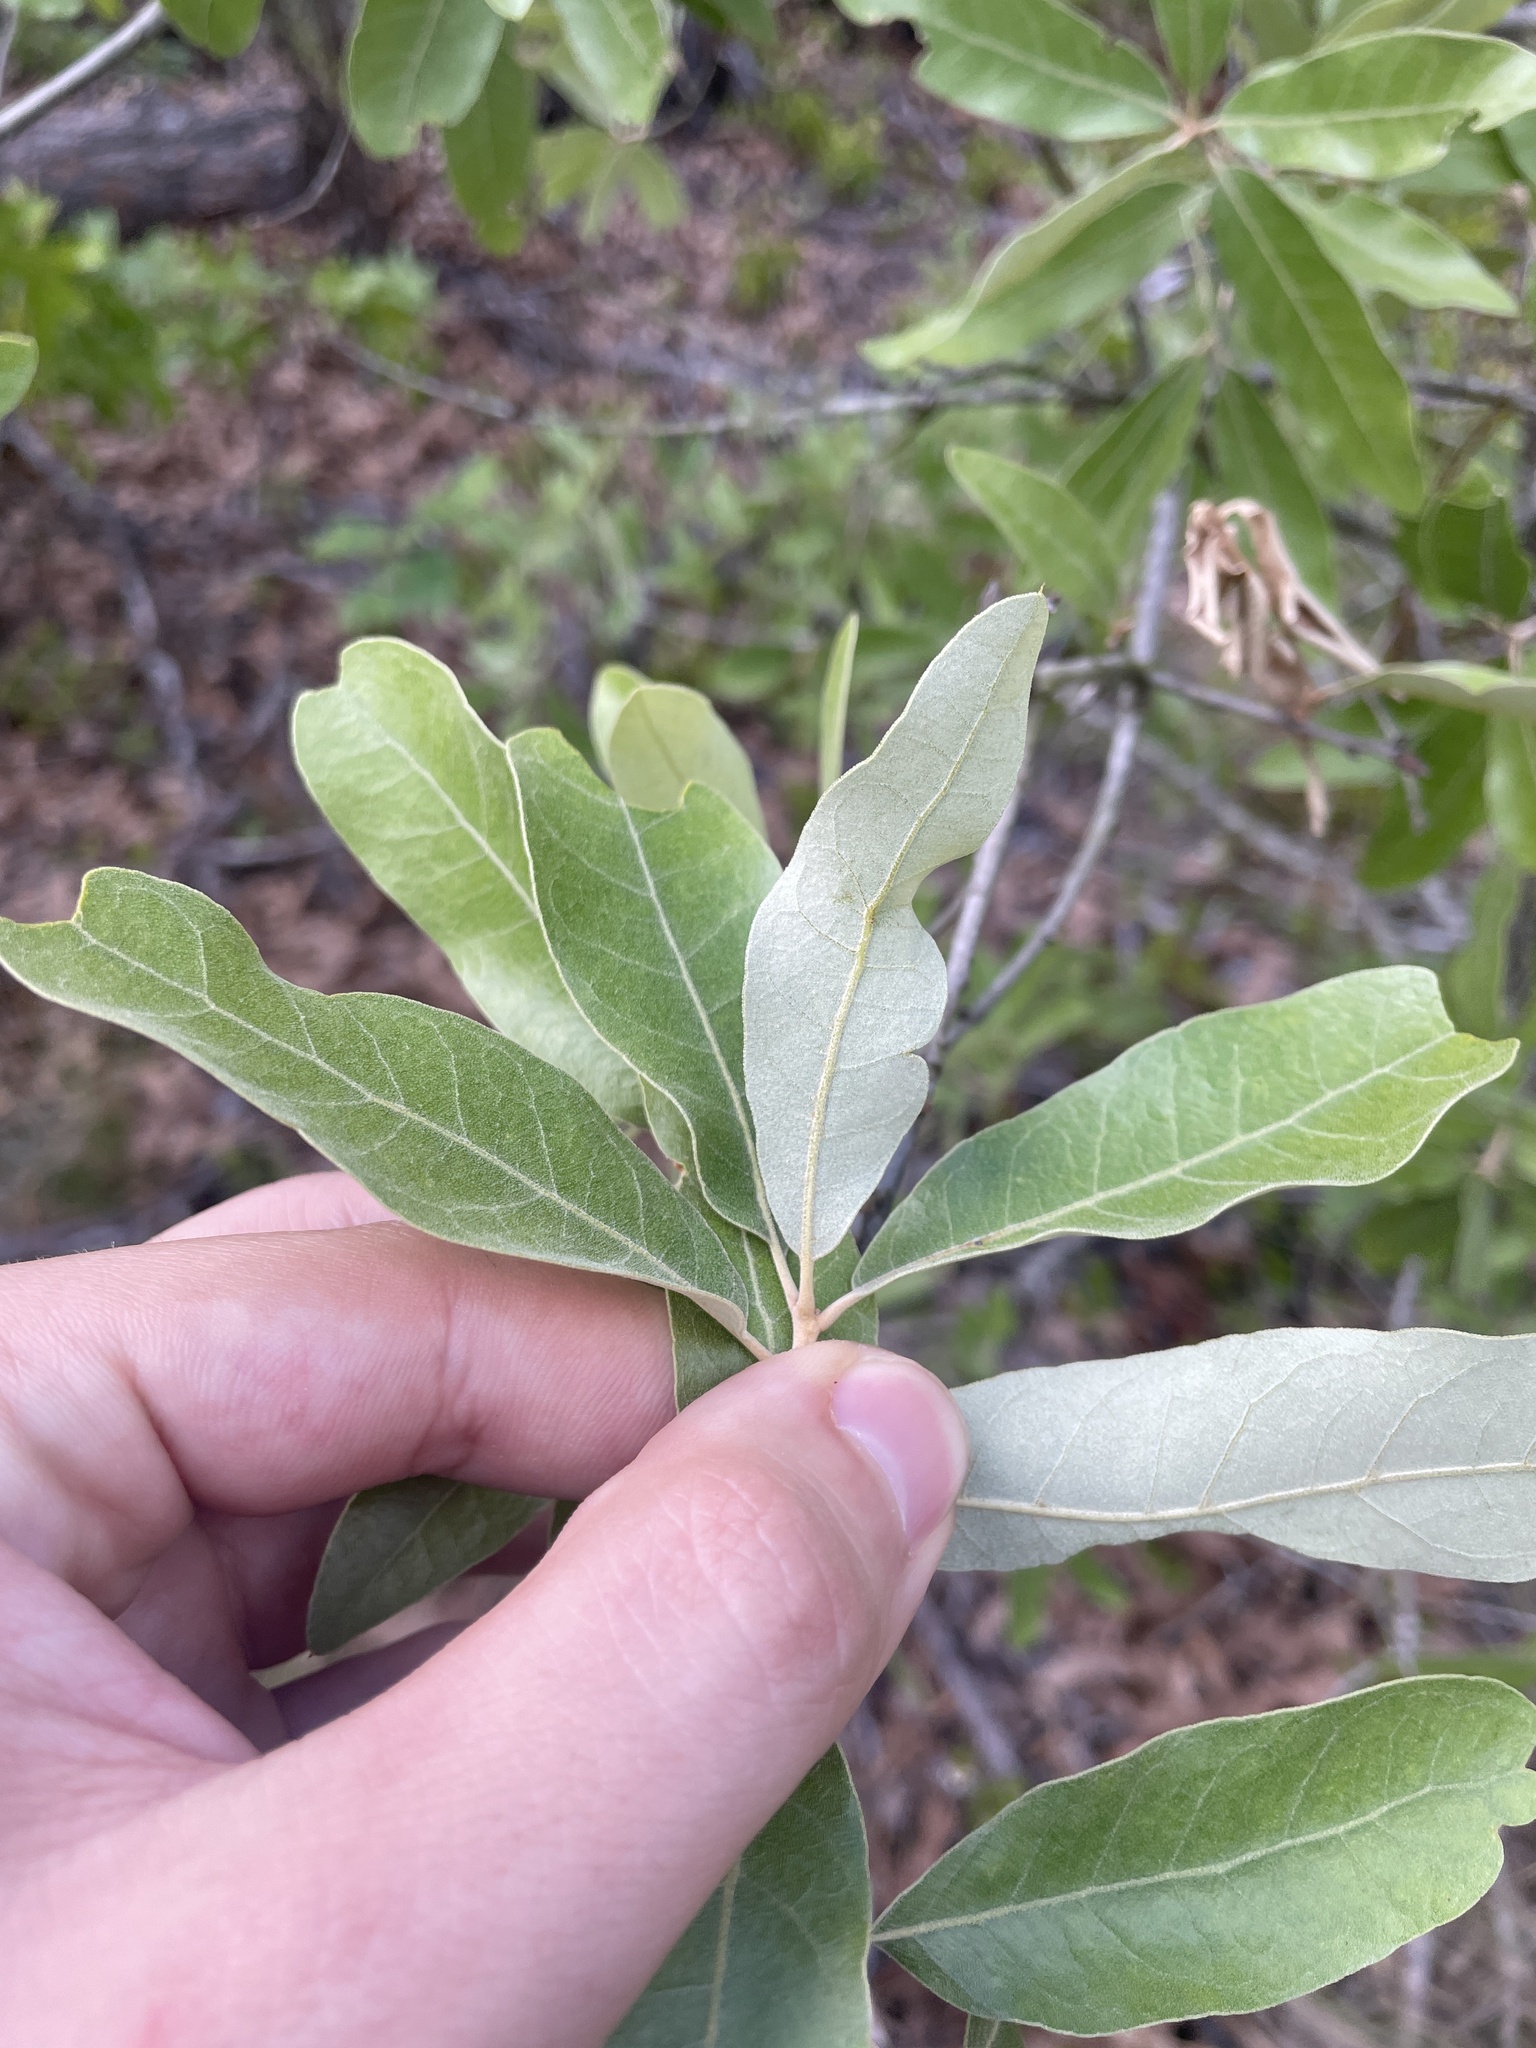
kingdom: Plantae
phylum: Tracheophyta
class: Magnoliopsida
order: Fagales
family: Fagaceae
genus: Quercus
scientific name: Quercus incana
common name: Bluejack oak
